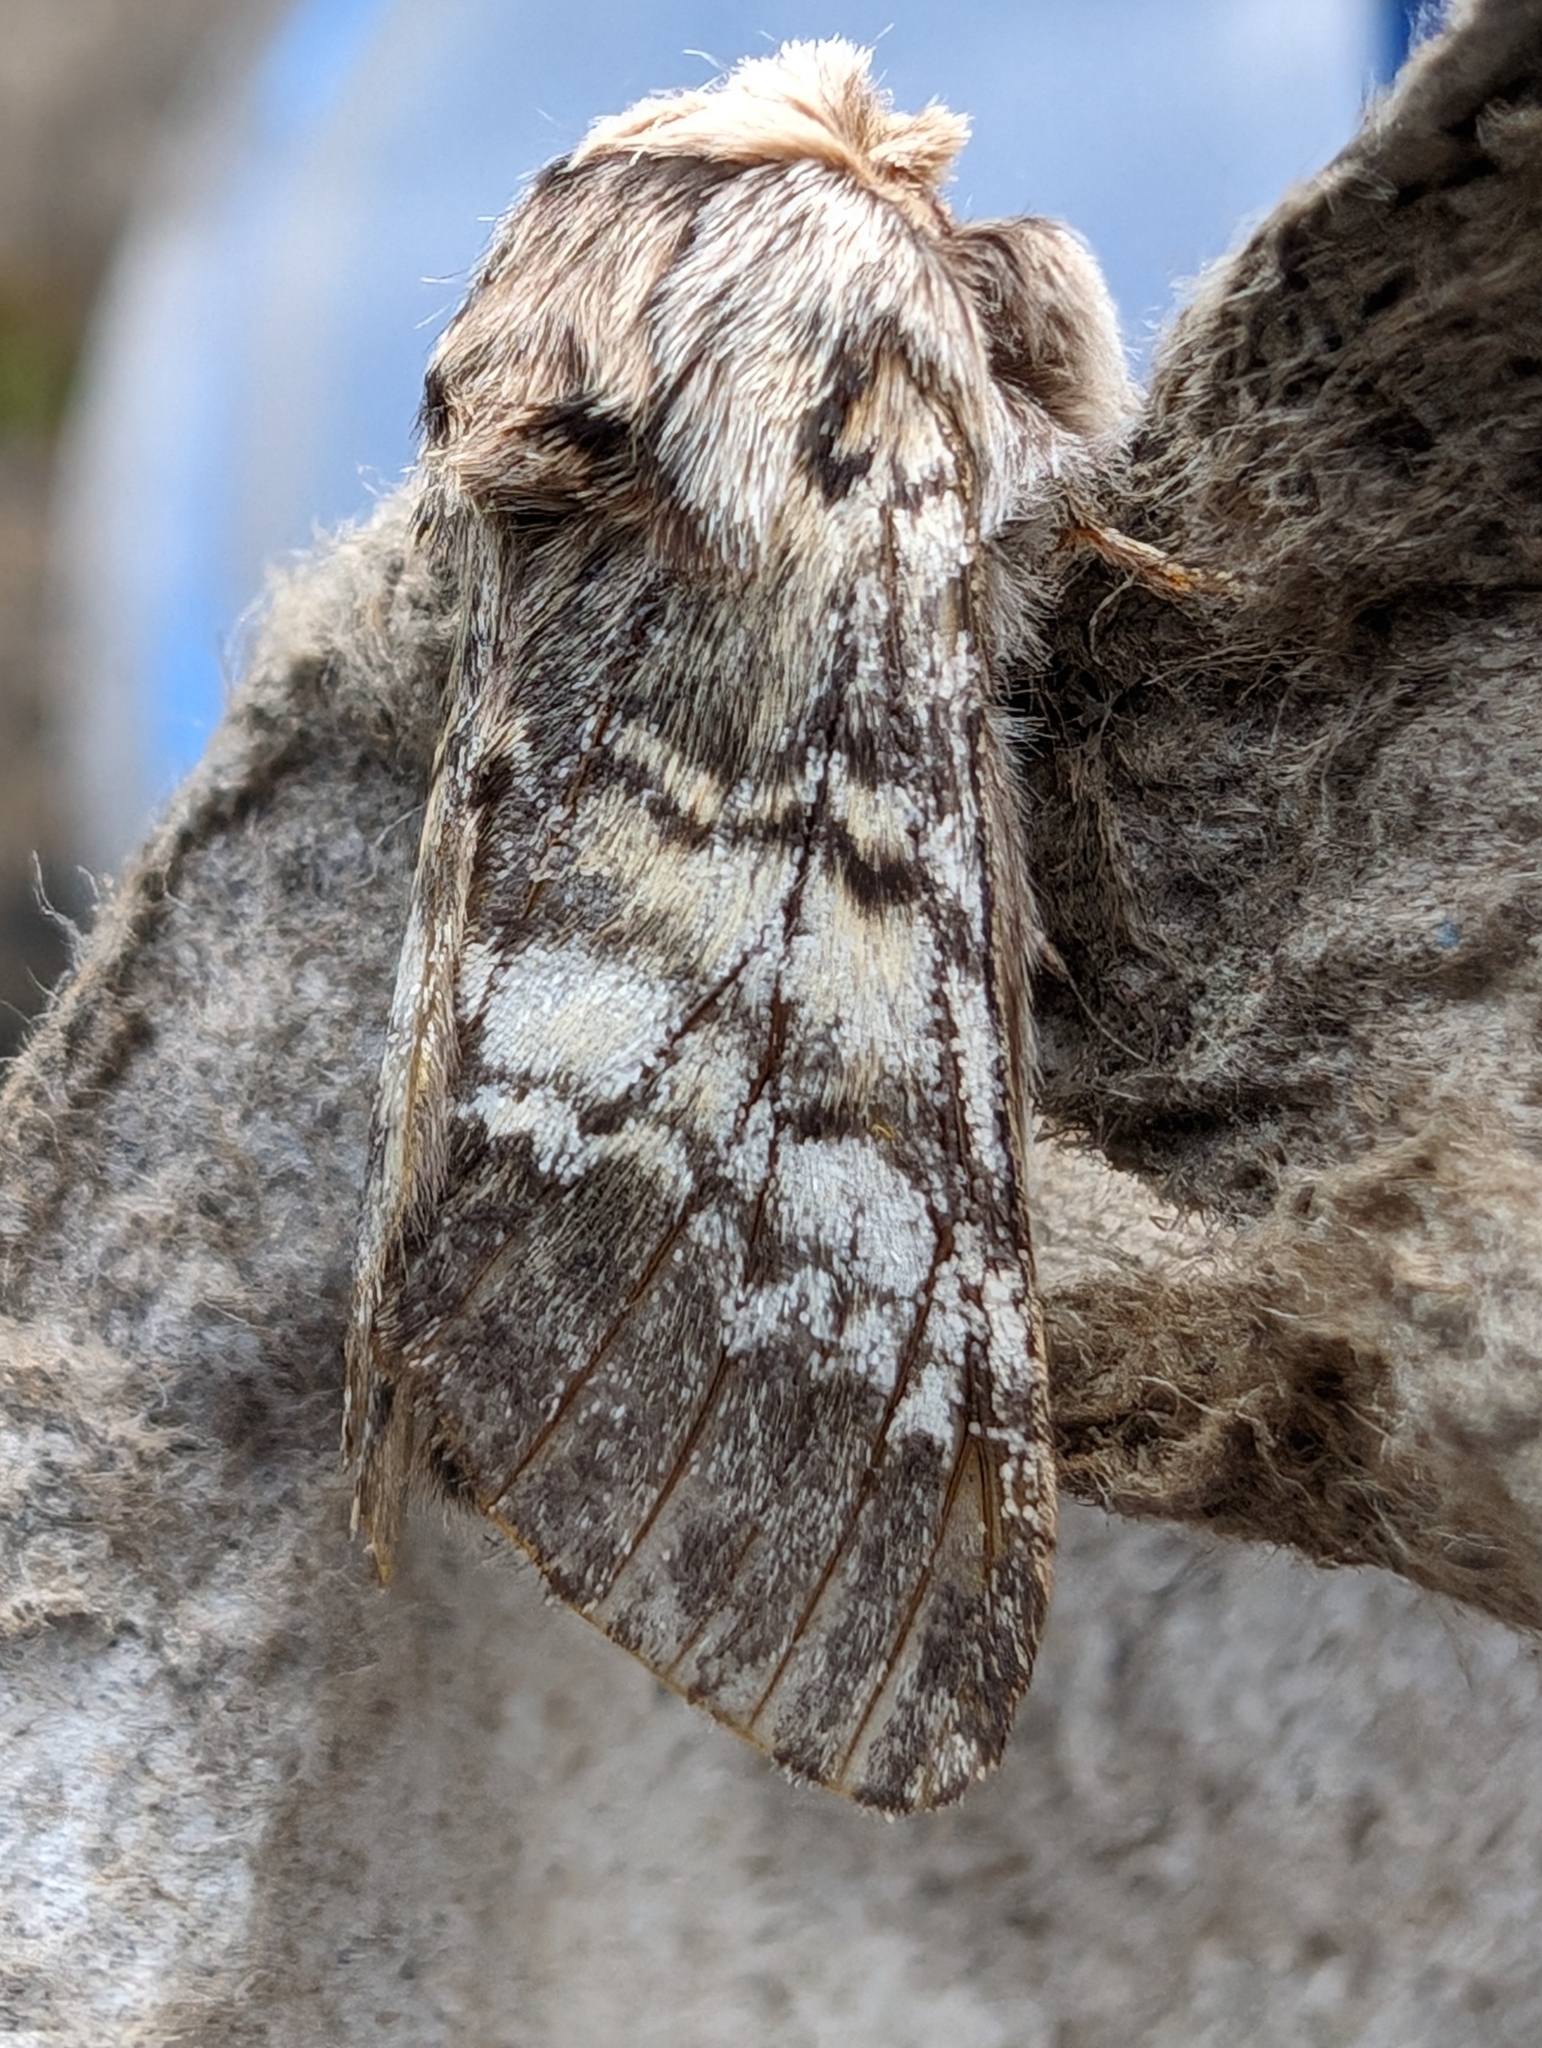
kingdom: Animalia
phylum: Arthropoda
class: Insecta
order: Lepidoptera
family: Notodontidae
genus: Drymonia
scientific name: Drymonia ruficornis
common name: Lunar marbled brown
